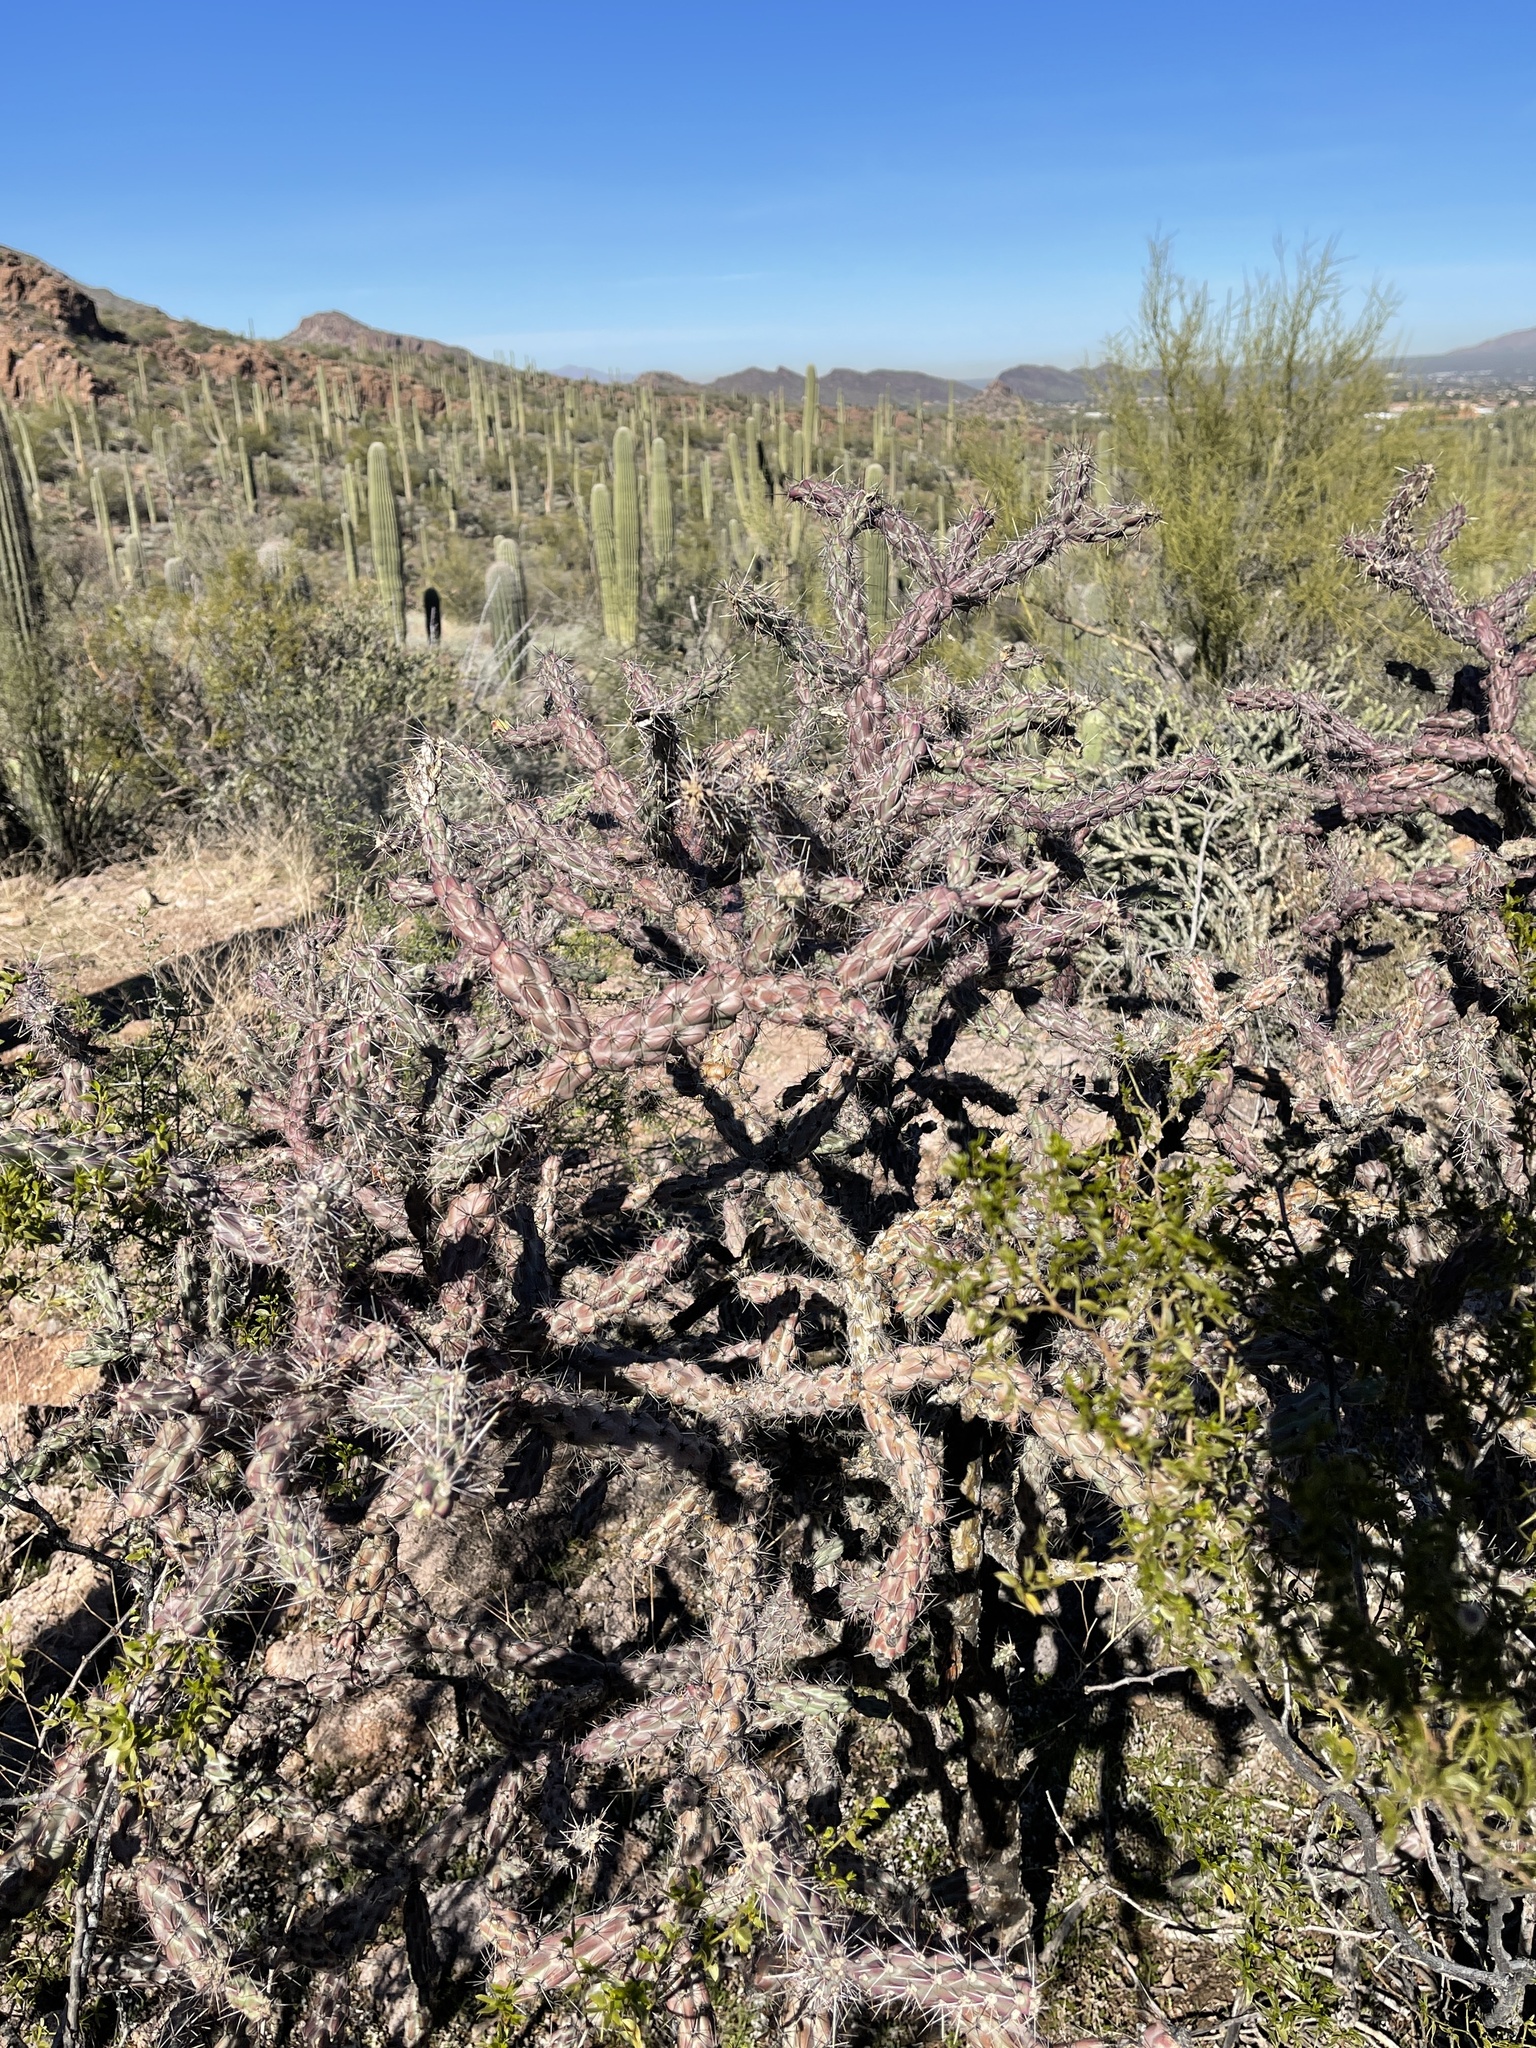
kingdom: Plantae
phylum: Tracheophyta
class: Magnoliopsida
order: Caryophyllales
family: Cactaceae
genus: Cylindropuntia
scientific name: Cylindropuntia acanthocarpa
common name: Buckhorn cholla
